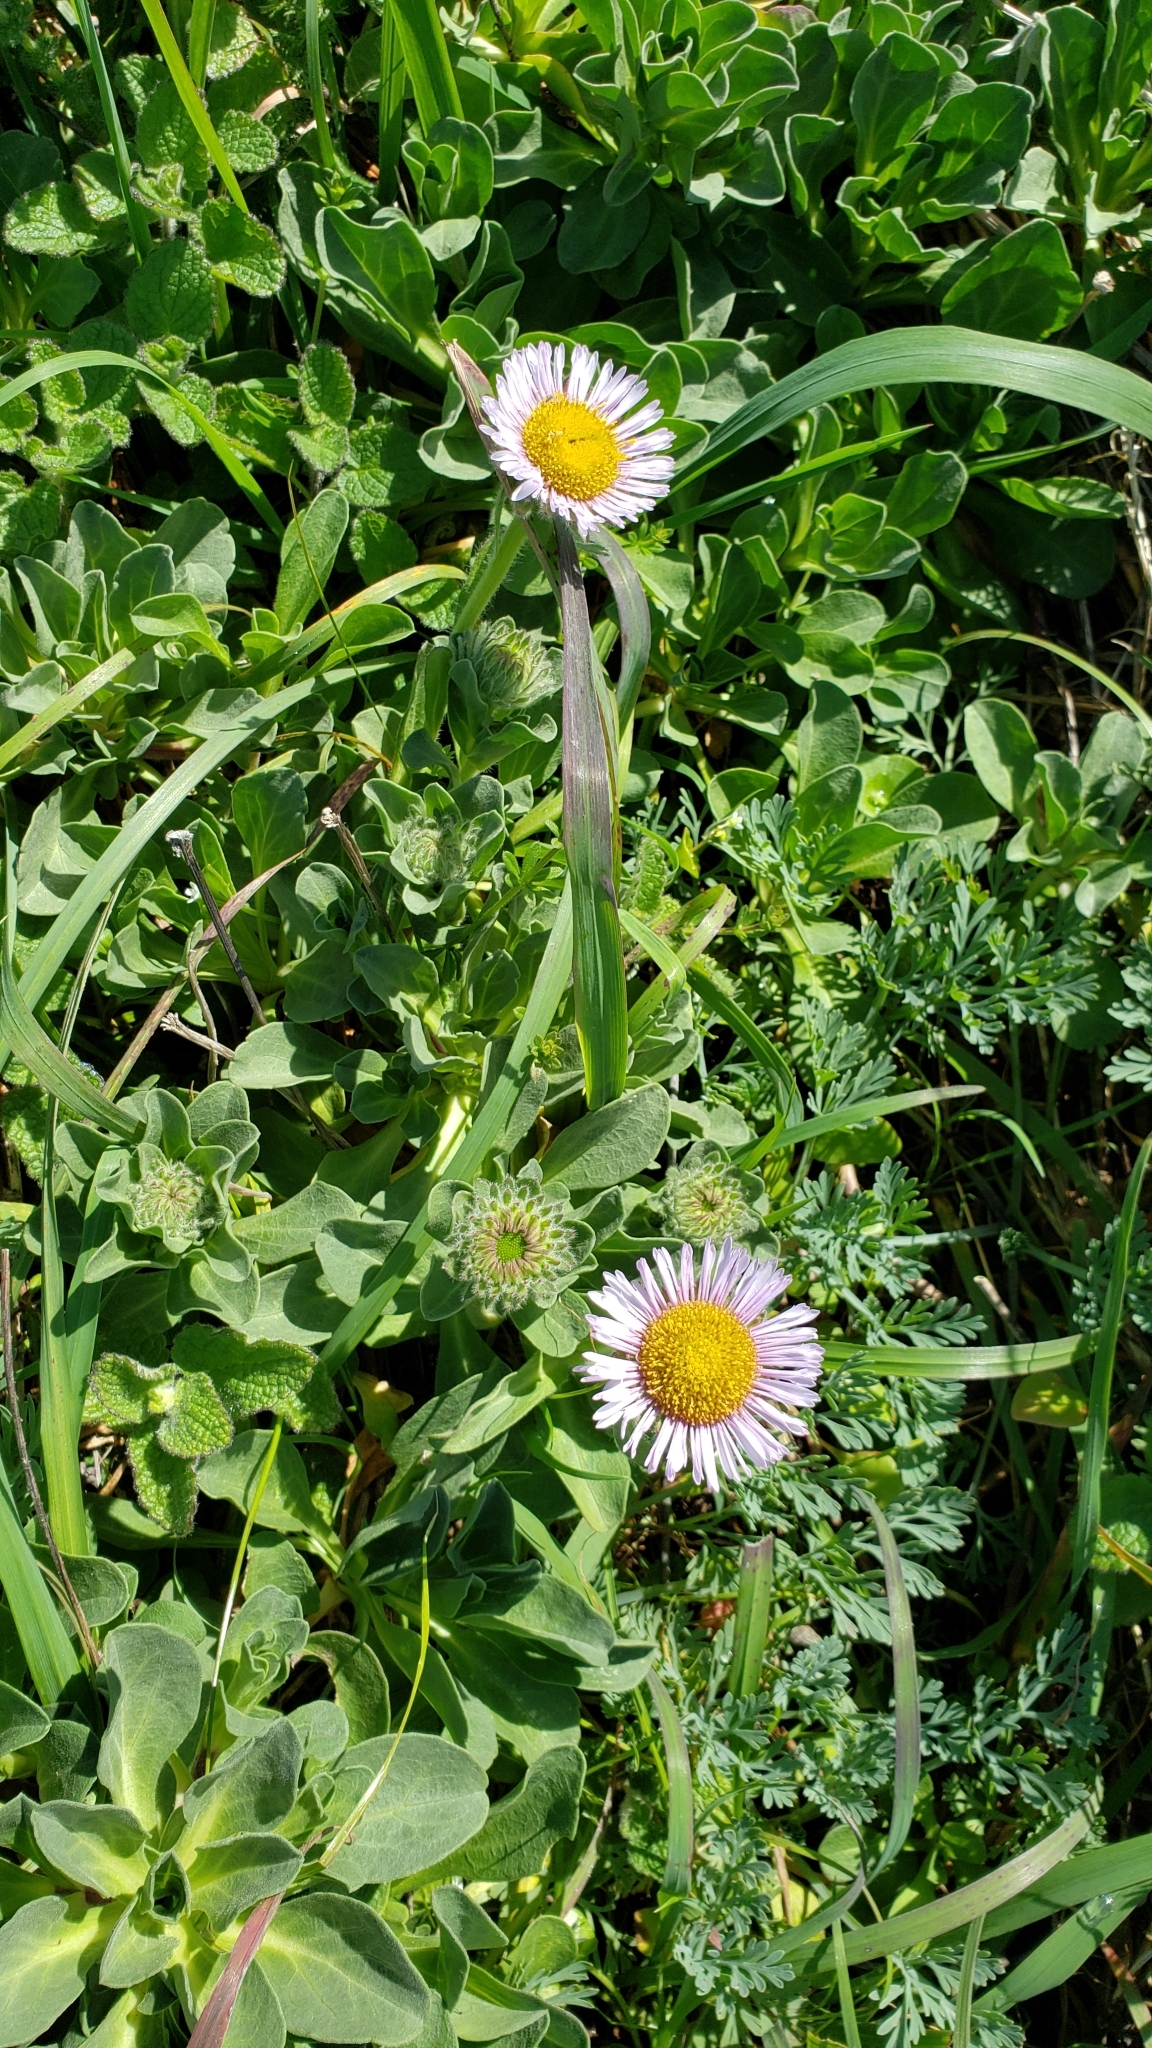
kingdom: Plantae
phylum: Tracheophyta
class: Magnoliopsida
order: Asterales
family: Asteraceae
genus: Erigeron
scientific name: Erigeron glaucus
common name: Seaside daisy
